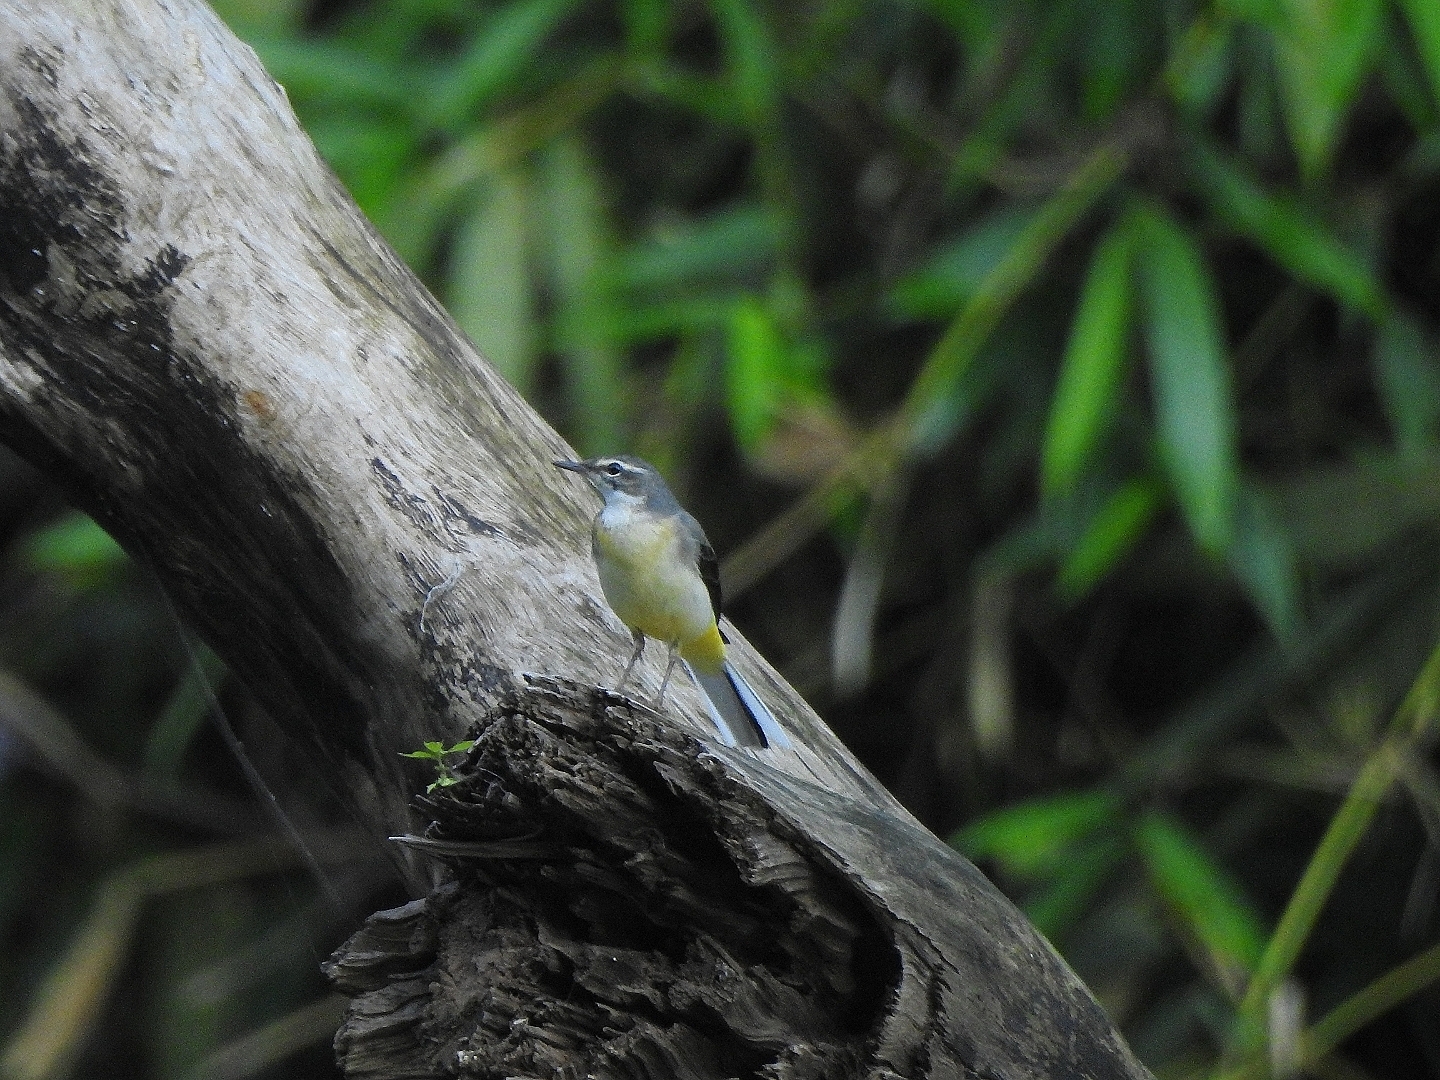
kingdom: Animalia
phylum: Chordata
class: Aves
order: Passeriformes
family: Motacillidae
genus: Motacilla
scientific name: Motacilla cinerea
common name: Grey wagtail
